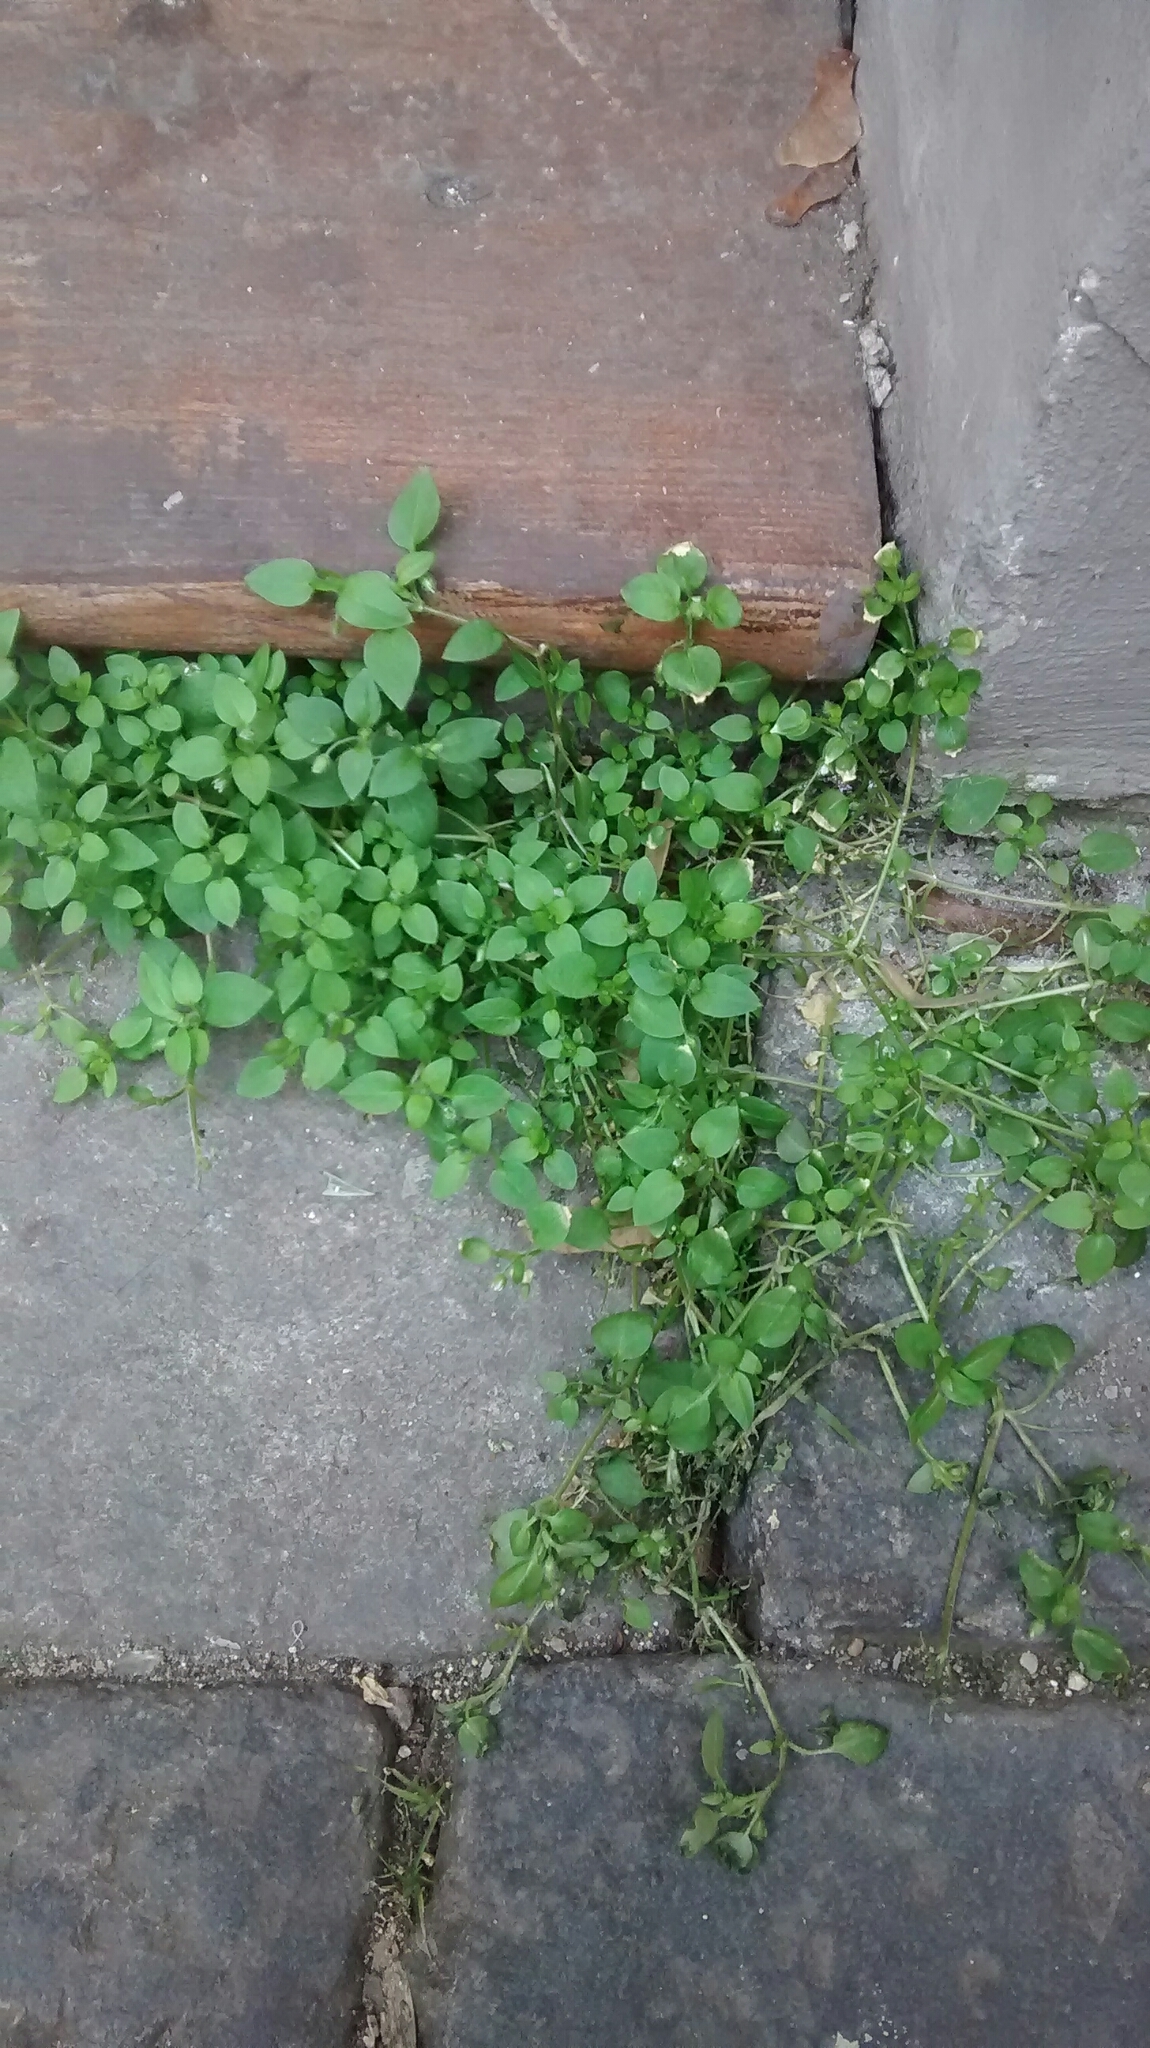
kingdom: Plantae
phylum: Tracheophyta
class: Magnoliopsida
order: Caryophyllales
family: Caryophyllaceae
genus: Stellaria
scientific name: Stellaria media
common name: Common chickweed
